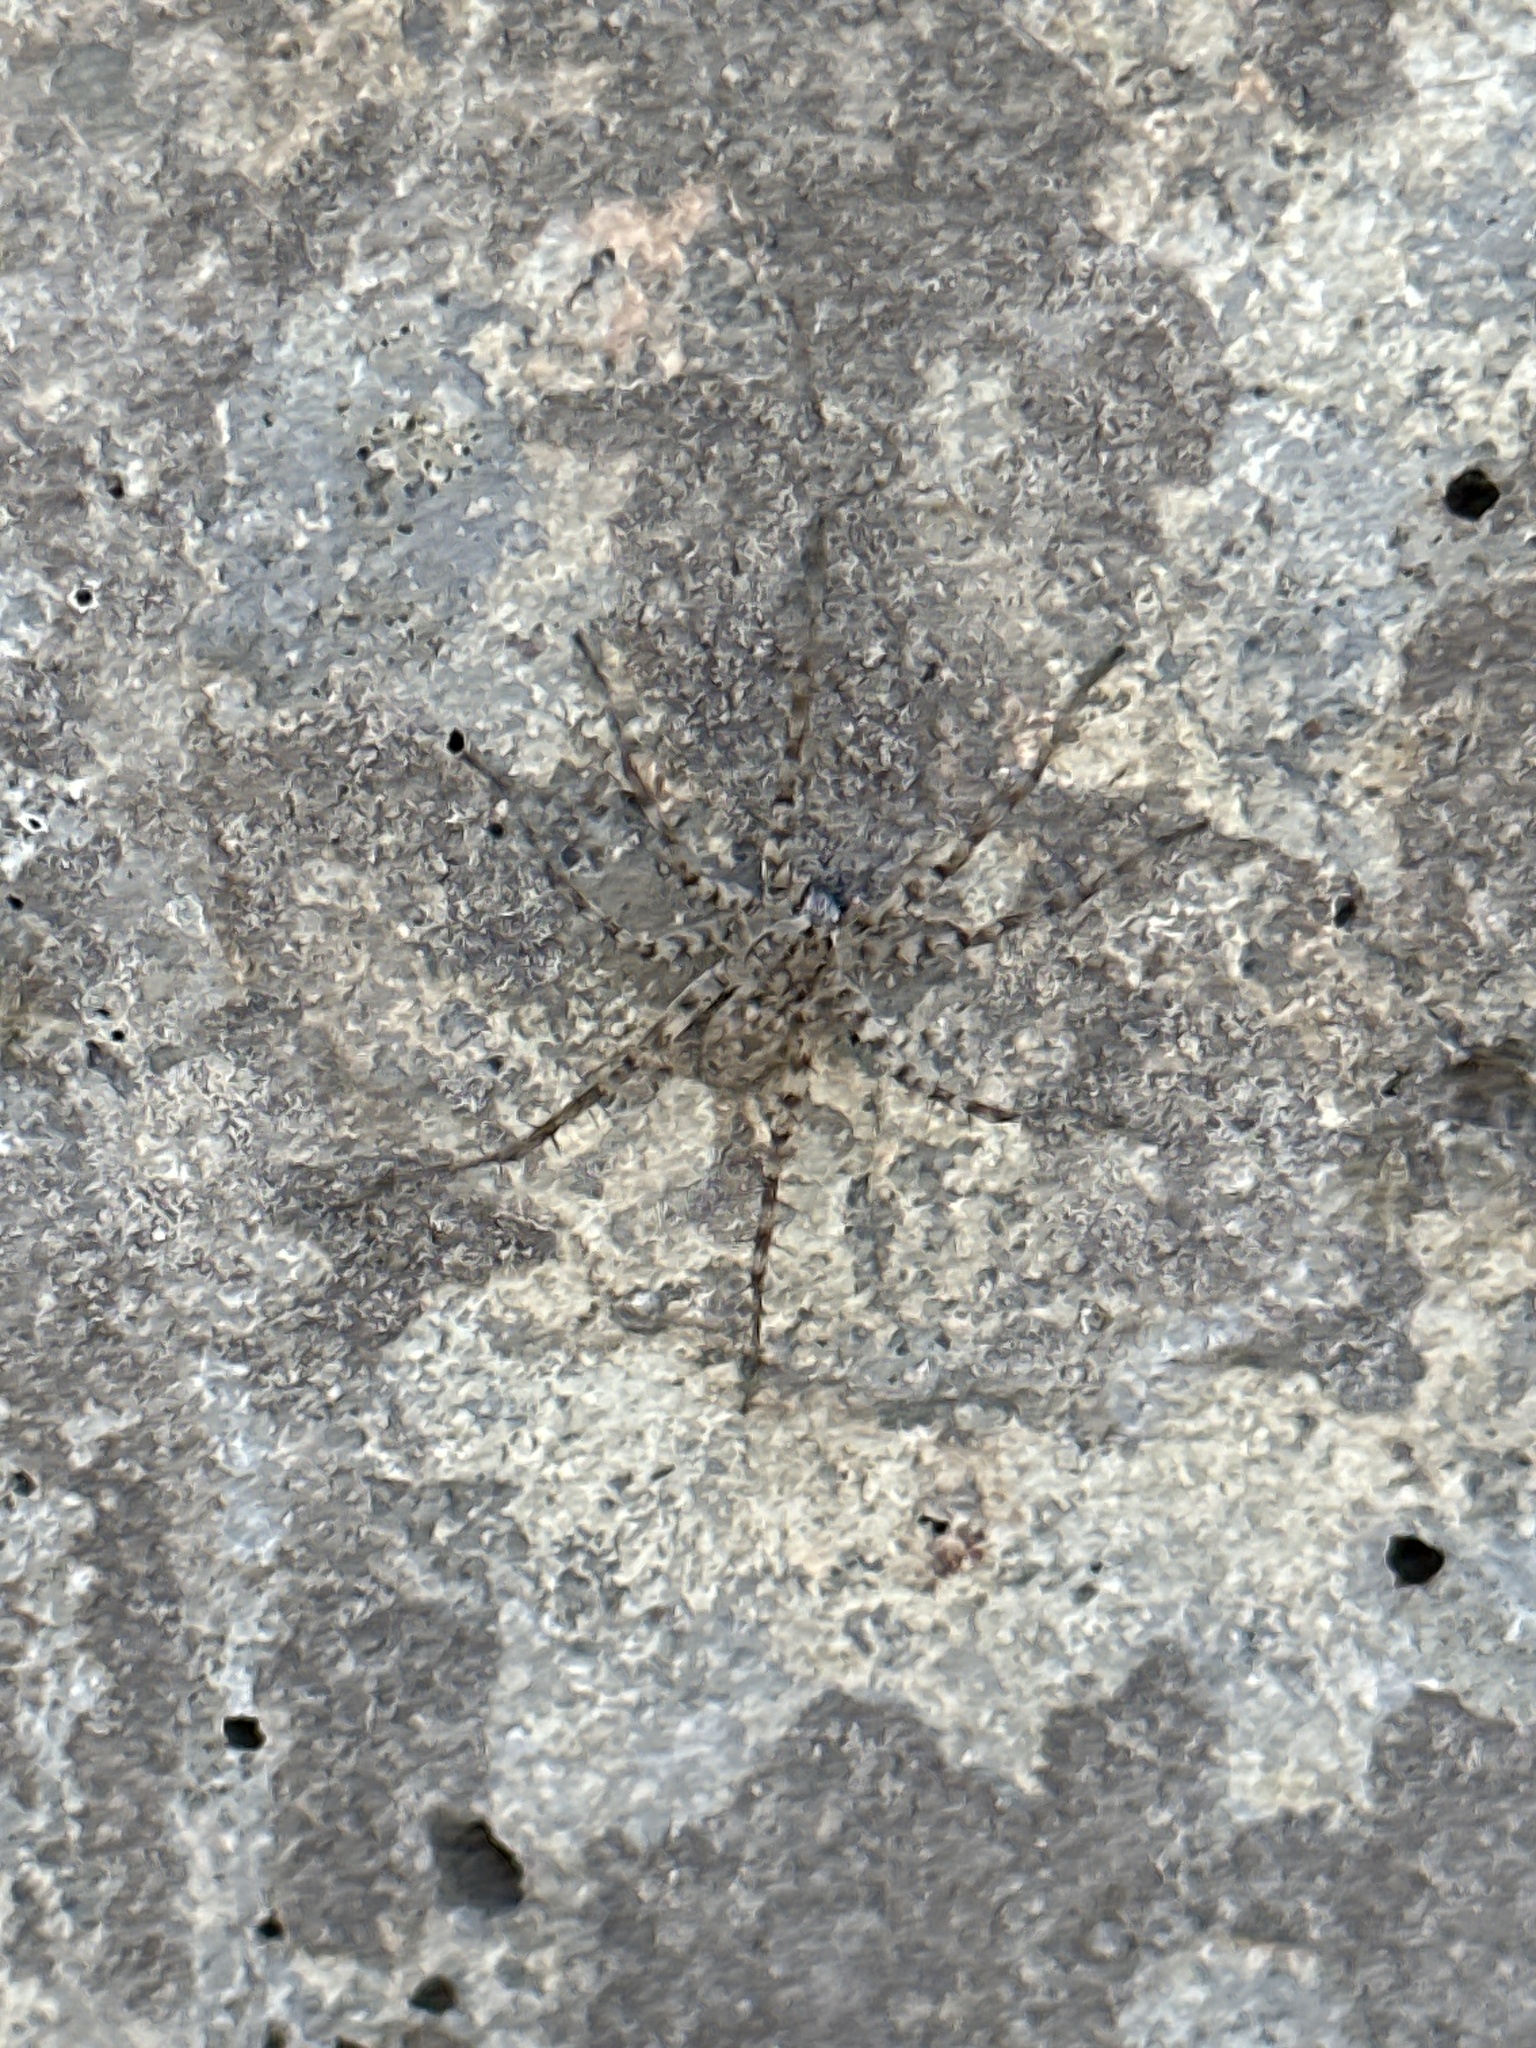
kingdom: Animalia
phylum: Arthropoda
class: Arachnida
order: Araneae
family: Lycosidae
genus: Pardosa
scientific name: Pardosa mercurialis
